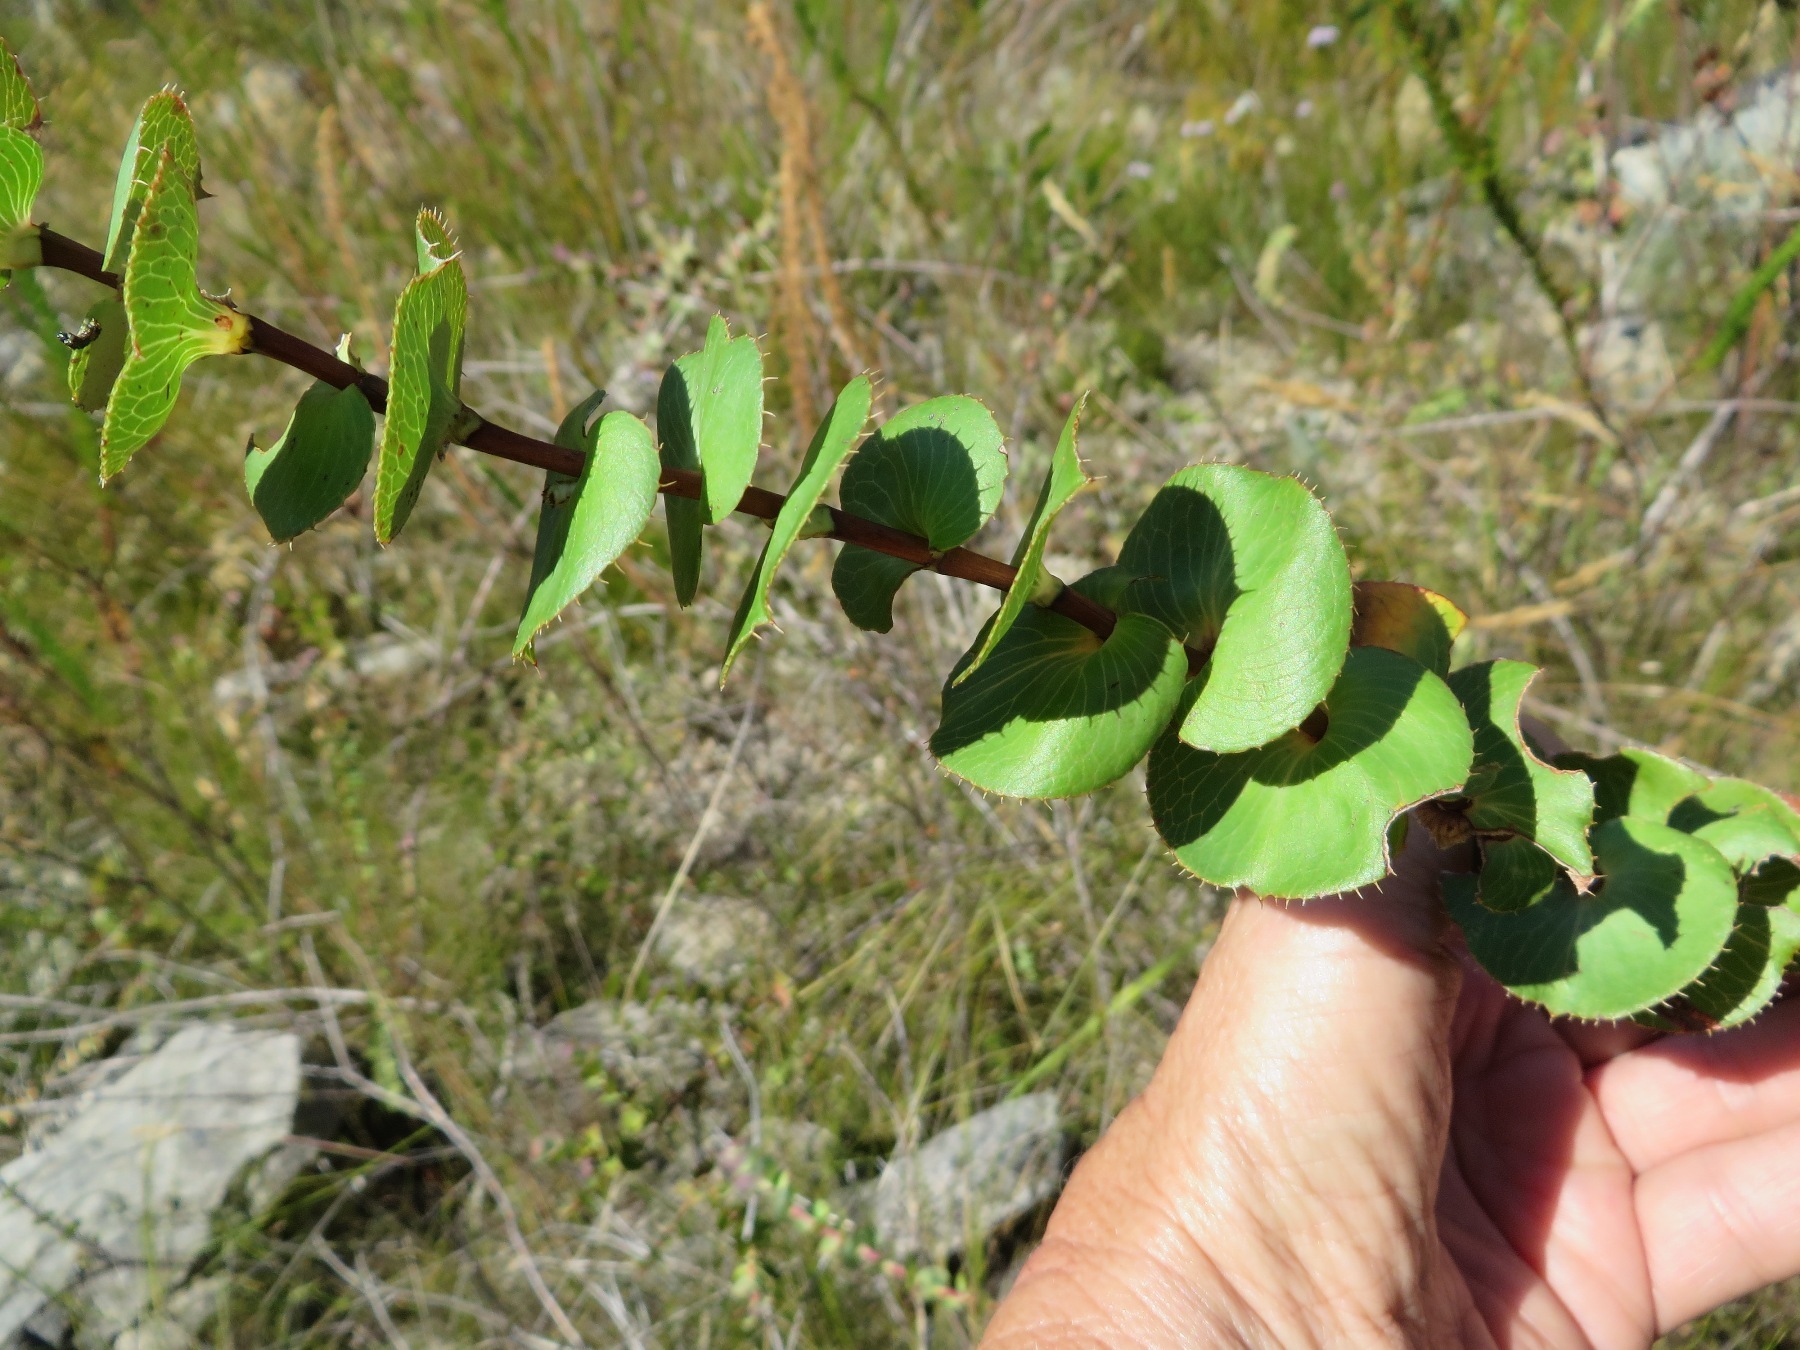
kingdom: Plantae
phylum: Tracheophyta
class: Magnoliopsida
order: Rosales
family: Rosaceae
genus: Cliffortia
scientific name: Cliffortia virgata
